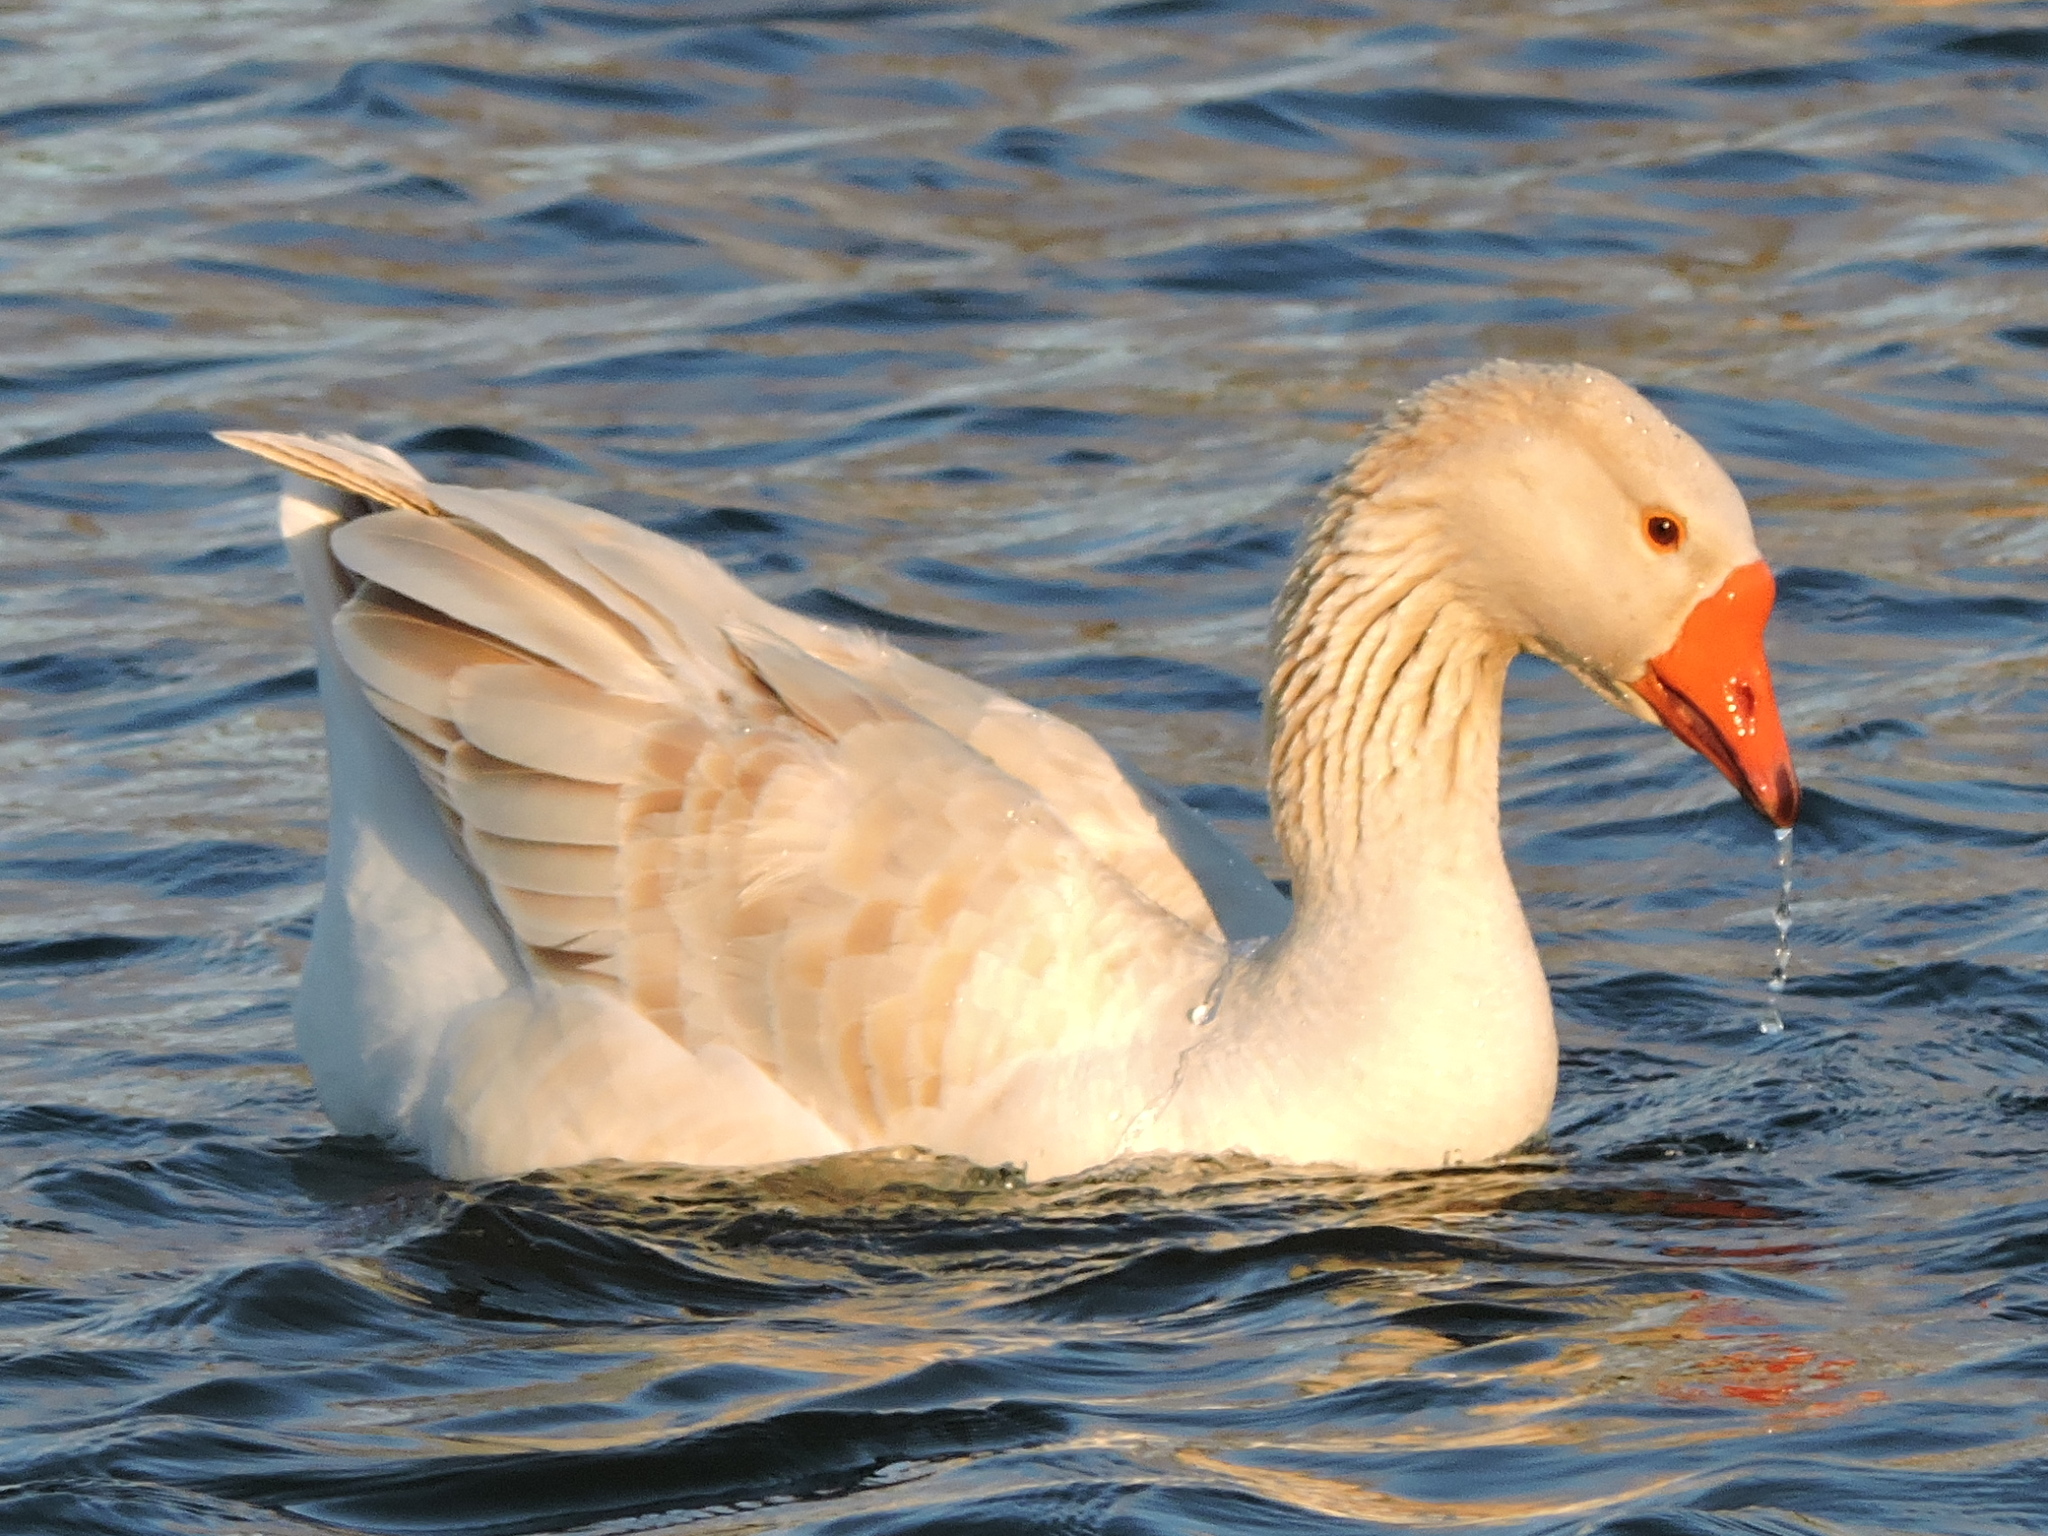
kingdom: Animalia
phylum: Chordata
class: Aves
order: Anseriformes
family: Anatidae
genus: Anser
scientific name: Anser
